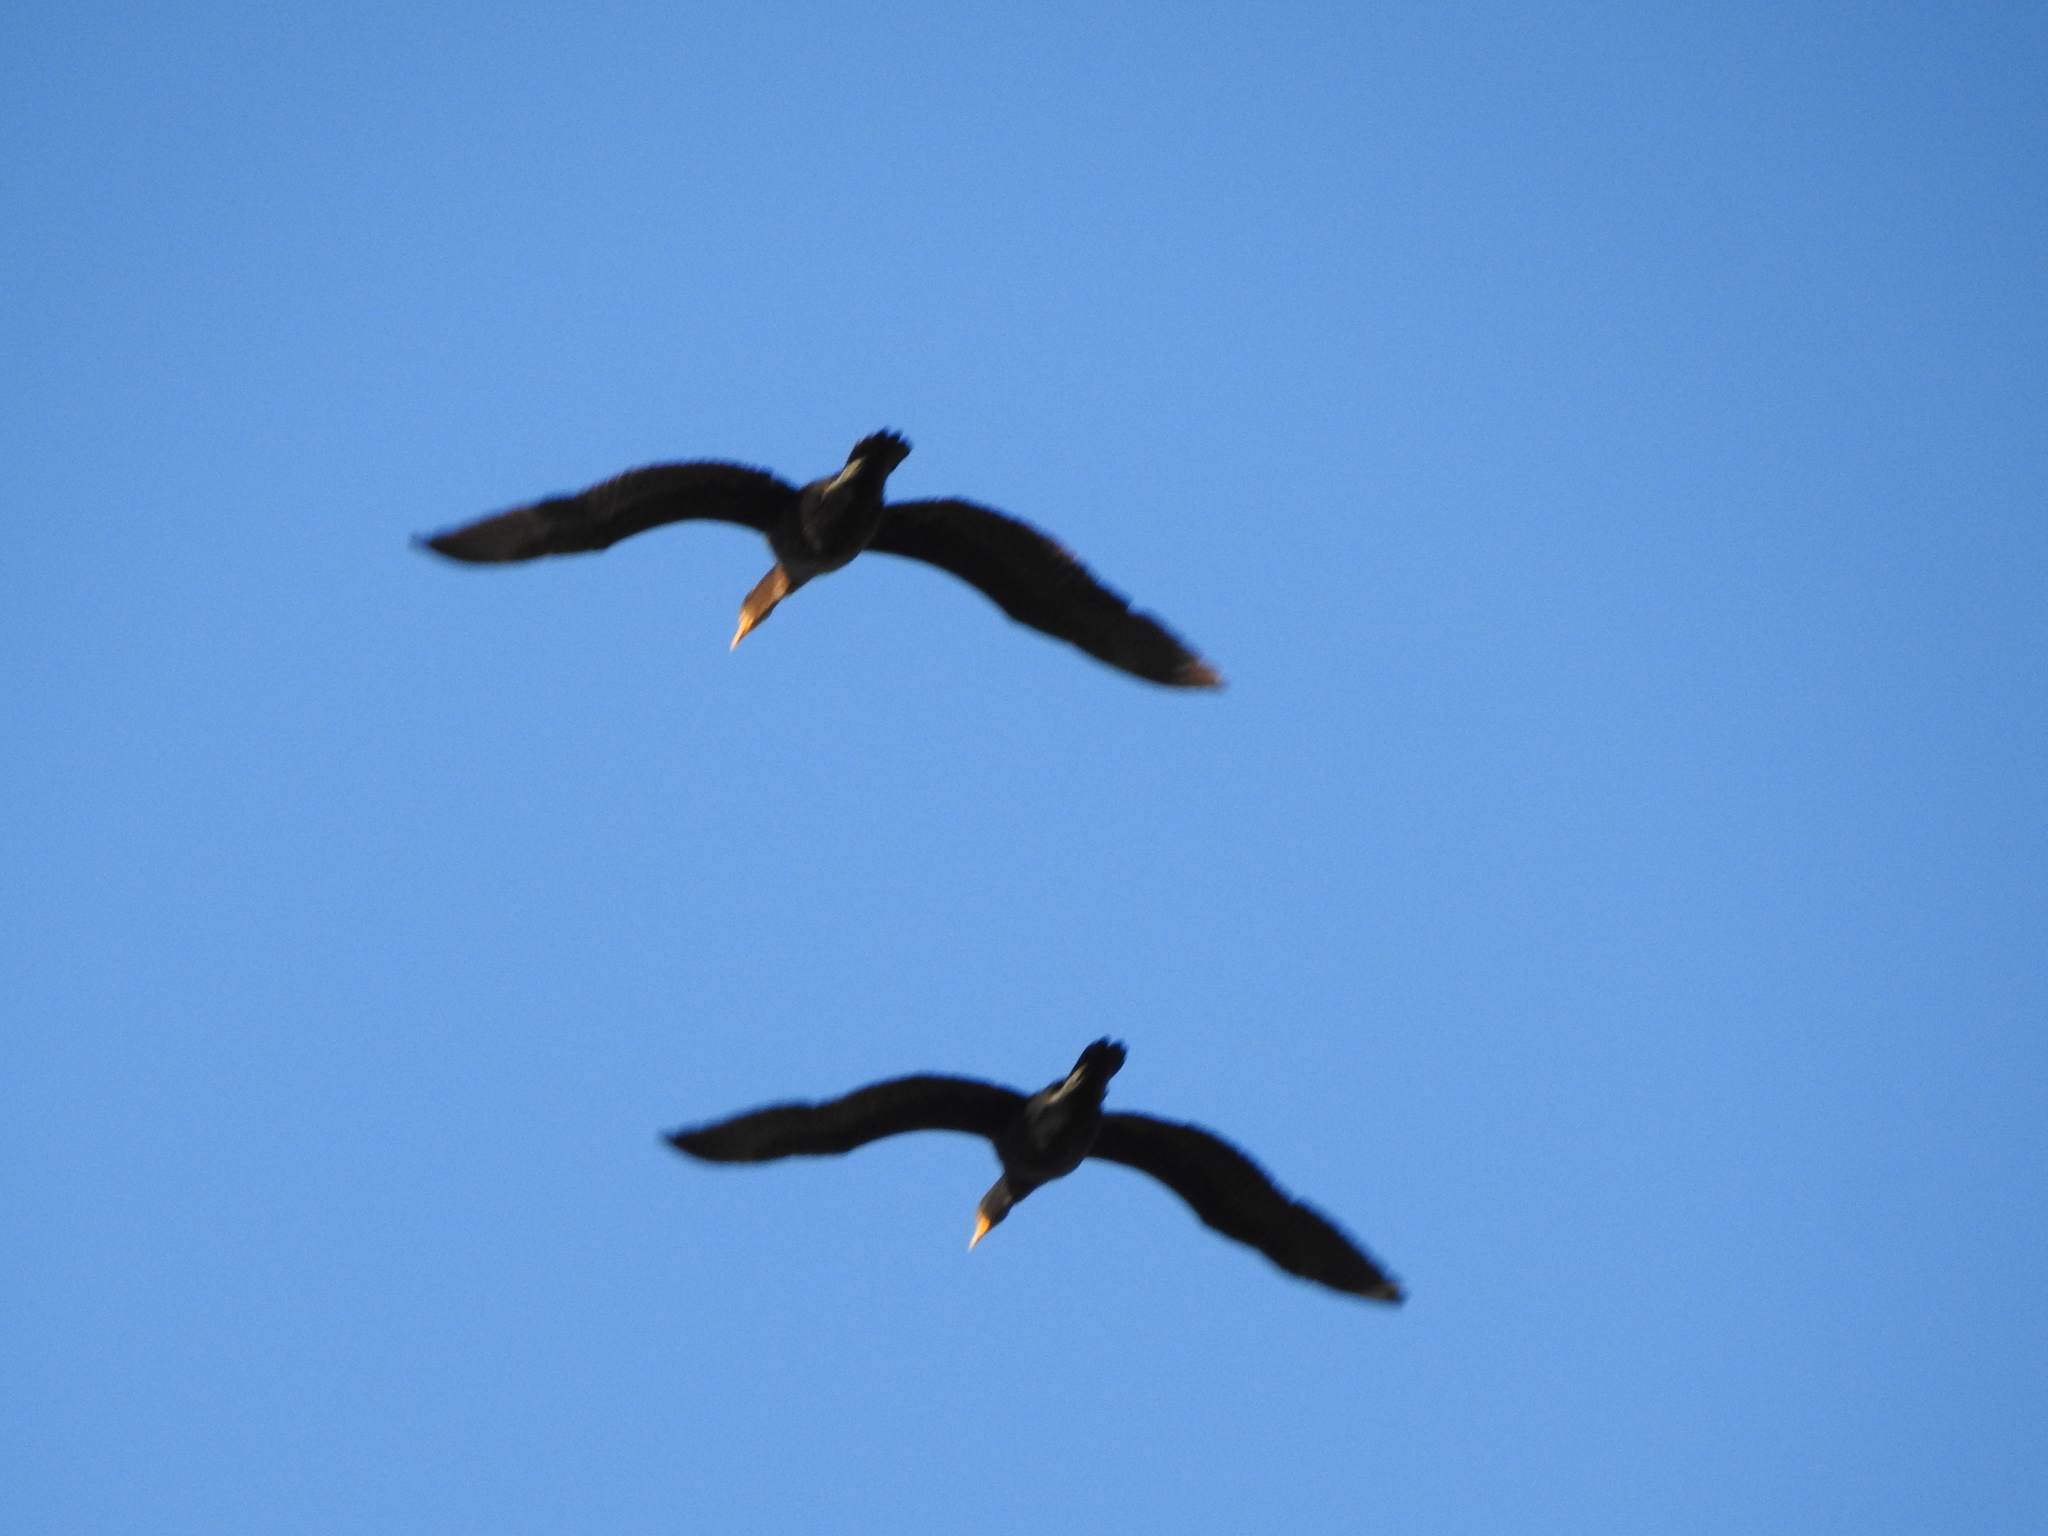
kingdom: Animalia
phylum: Chordata
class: Aves
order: Suliformes
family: Phalacrocoracidae
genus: Phalacrocorax
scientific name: Phalacrocorax auritus
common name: Double-crested cormorant
